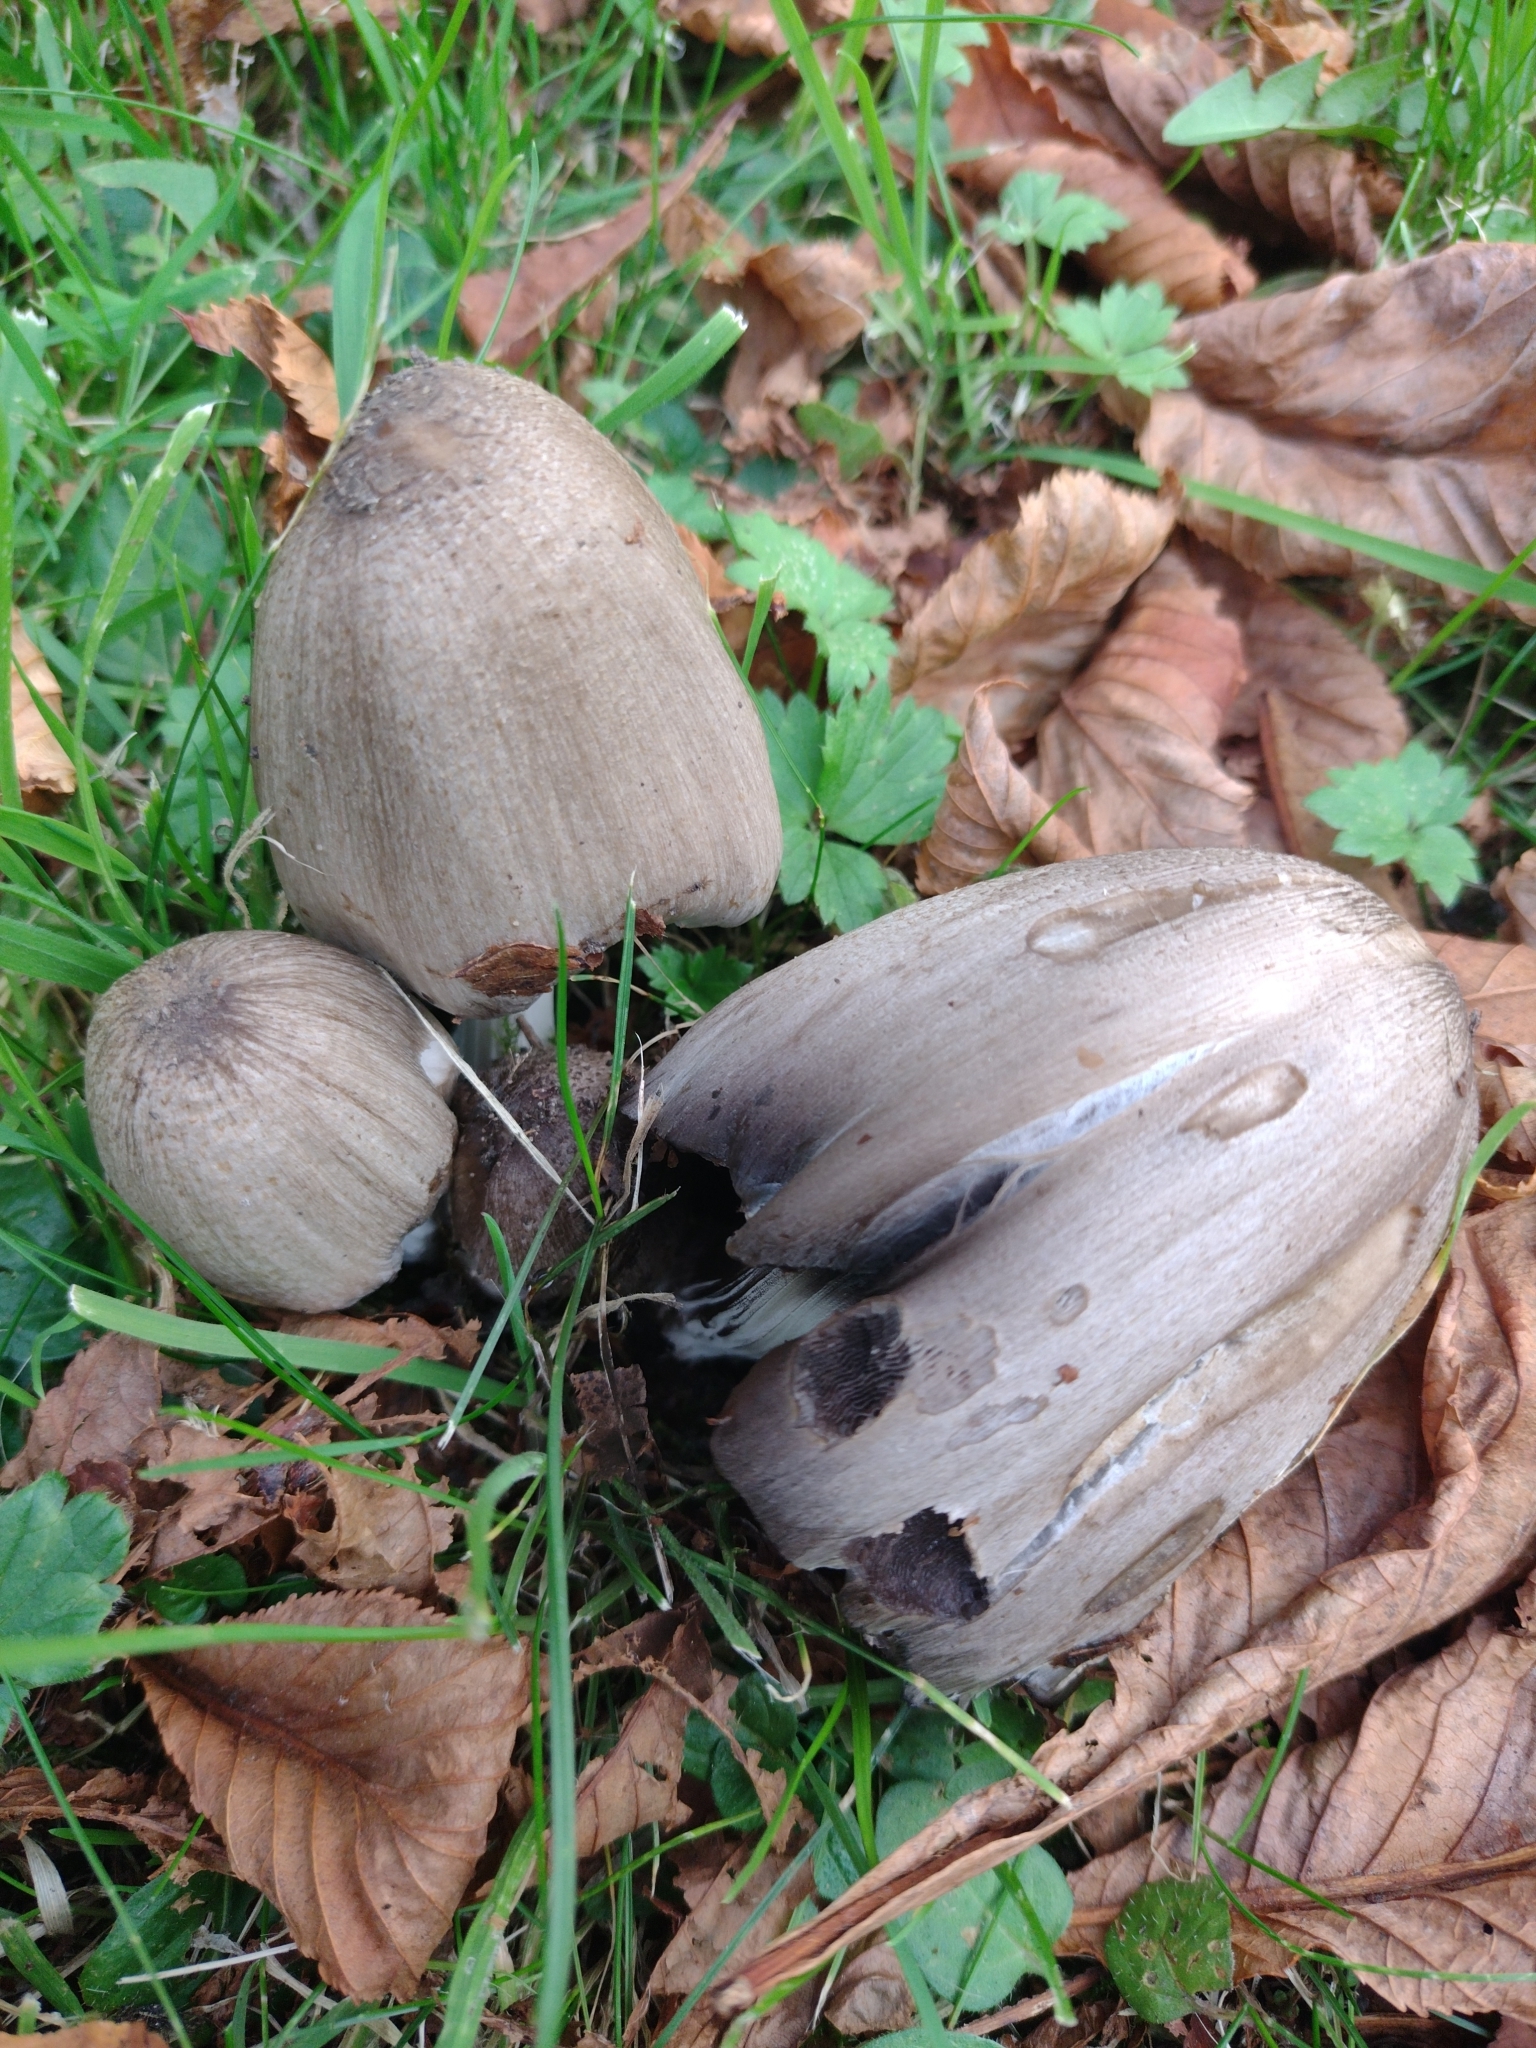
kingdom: Fungi
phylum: Basidiomycota
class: Agaricomycetes
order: Agaricales
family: Psathyrellaceae
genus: Coprinopsis
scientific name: Coprinopsis atramentaria
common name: Common ink-cap
